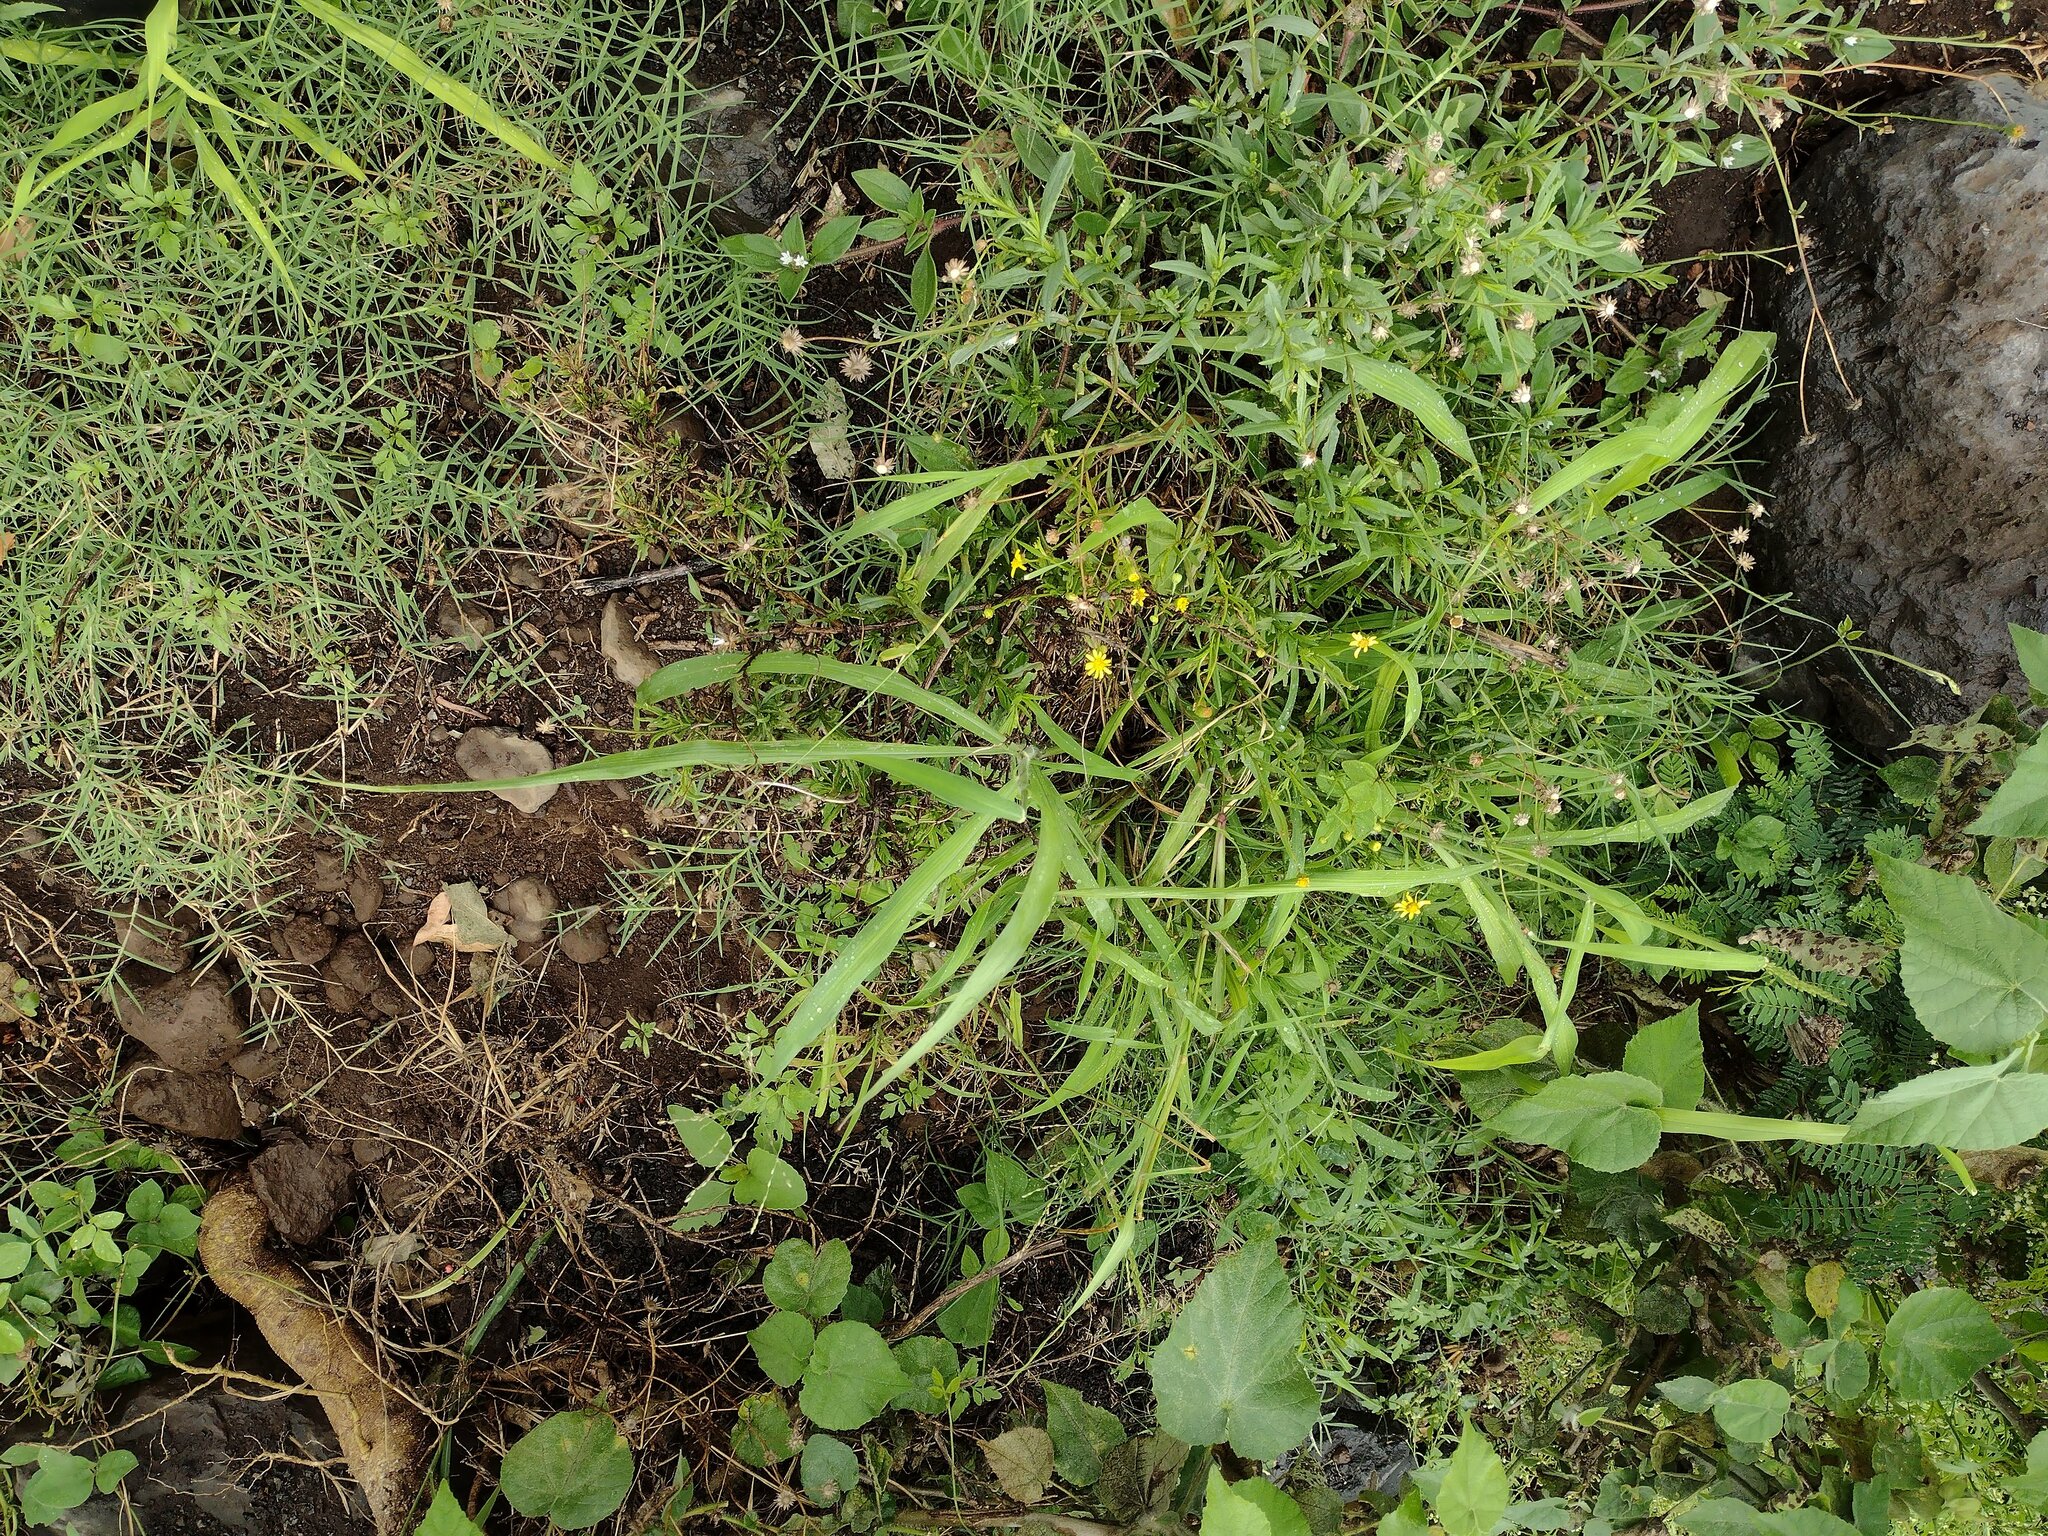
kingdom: Plantae
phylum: Tracheophyta
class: Liliopsida
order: Poales
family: Poaceae
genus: Megathyrsus
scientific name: Megathyrsus maximus
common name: Guineagrass
